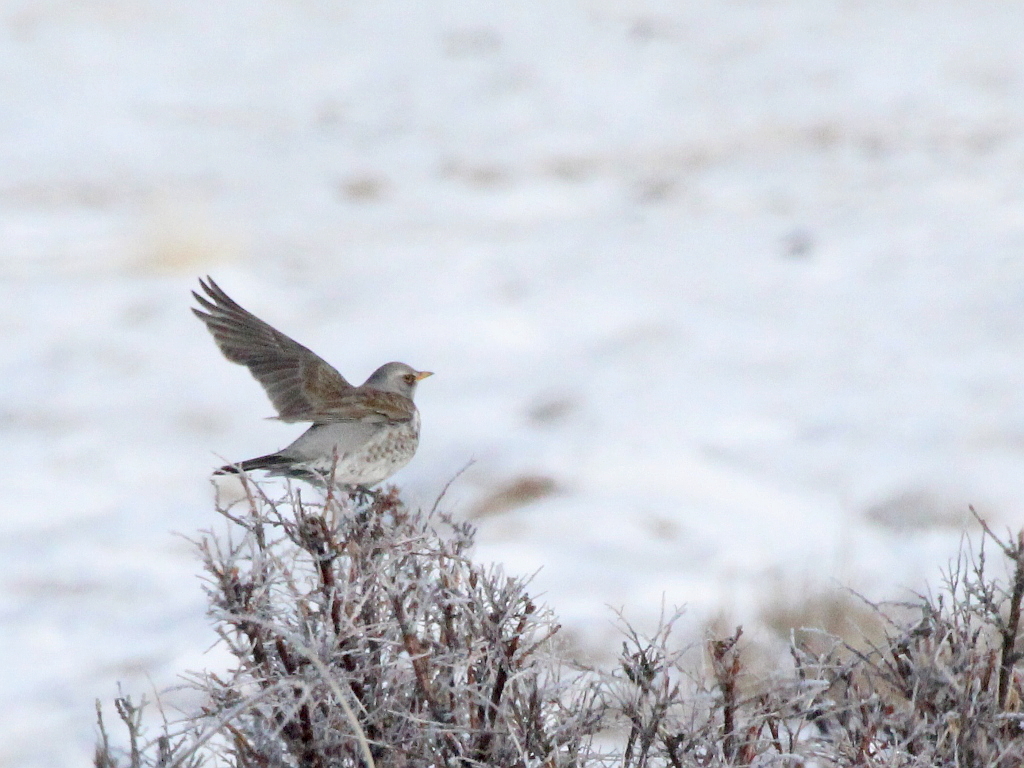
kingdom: Animalia
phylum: Chordata
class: Aves
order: Passeriformes
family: Turdidae
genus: Turdus
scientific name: Turdus pilaris
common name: Fieldfare
